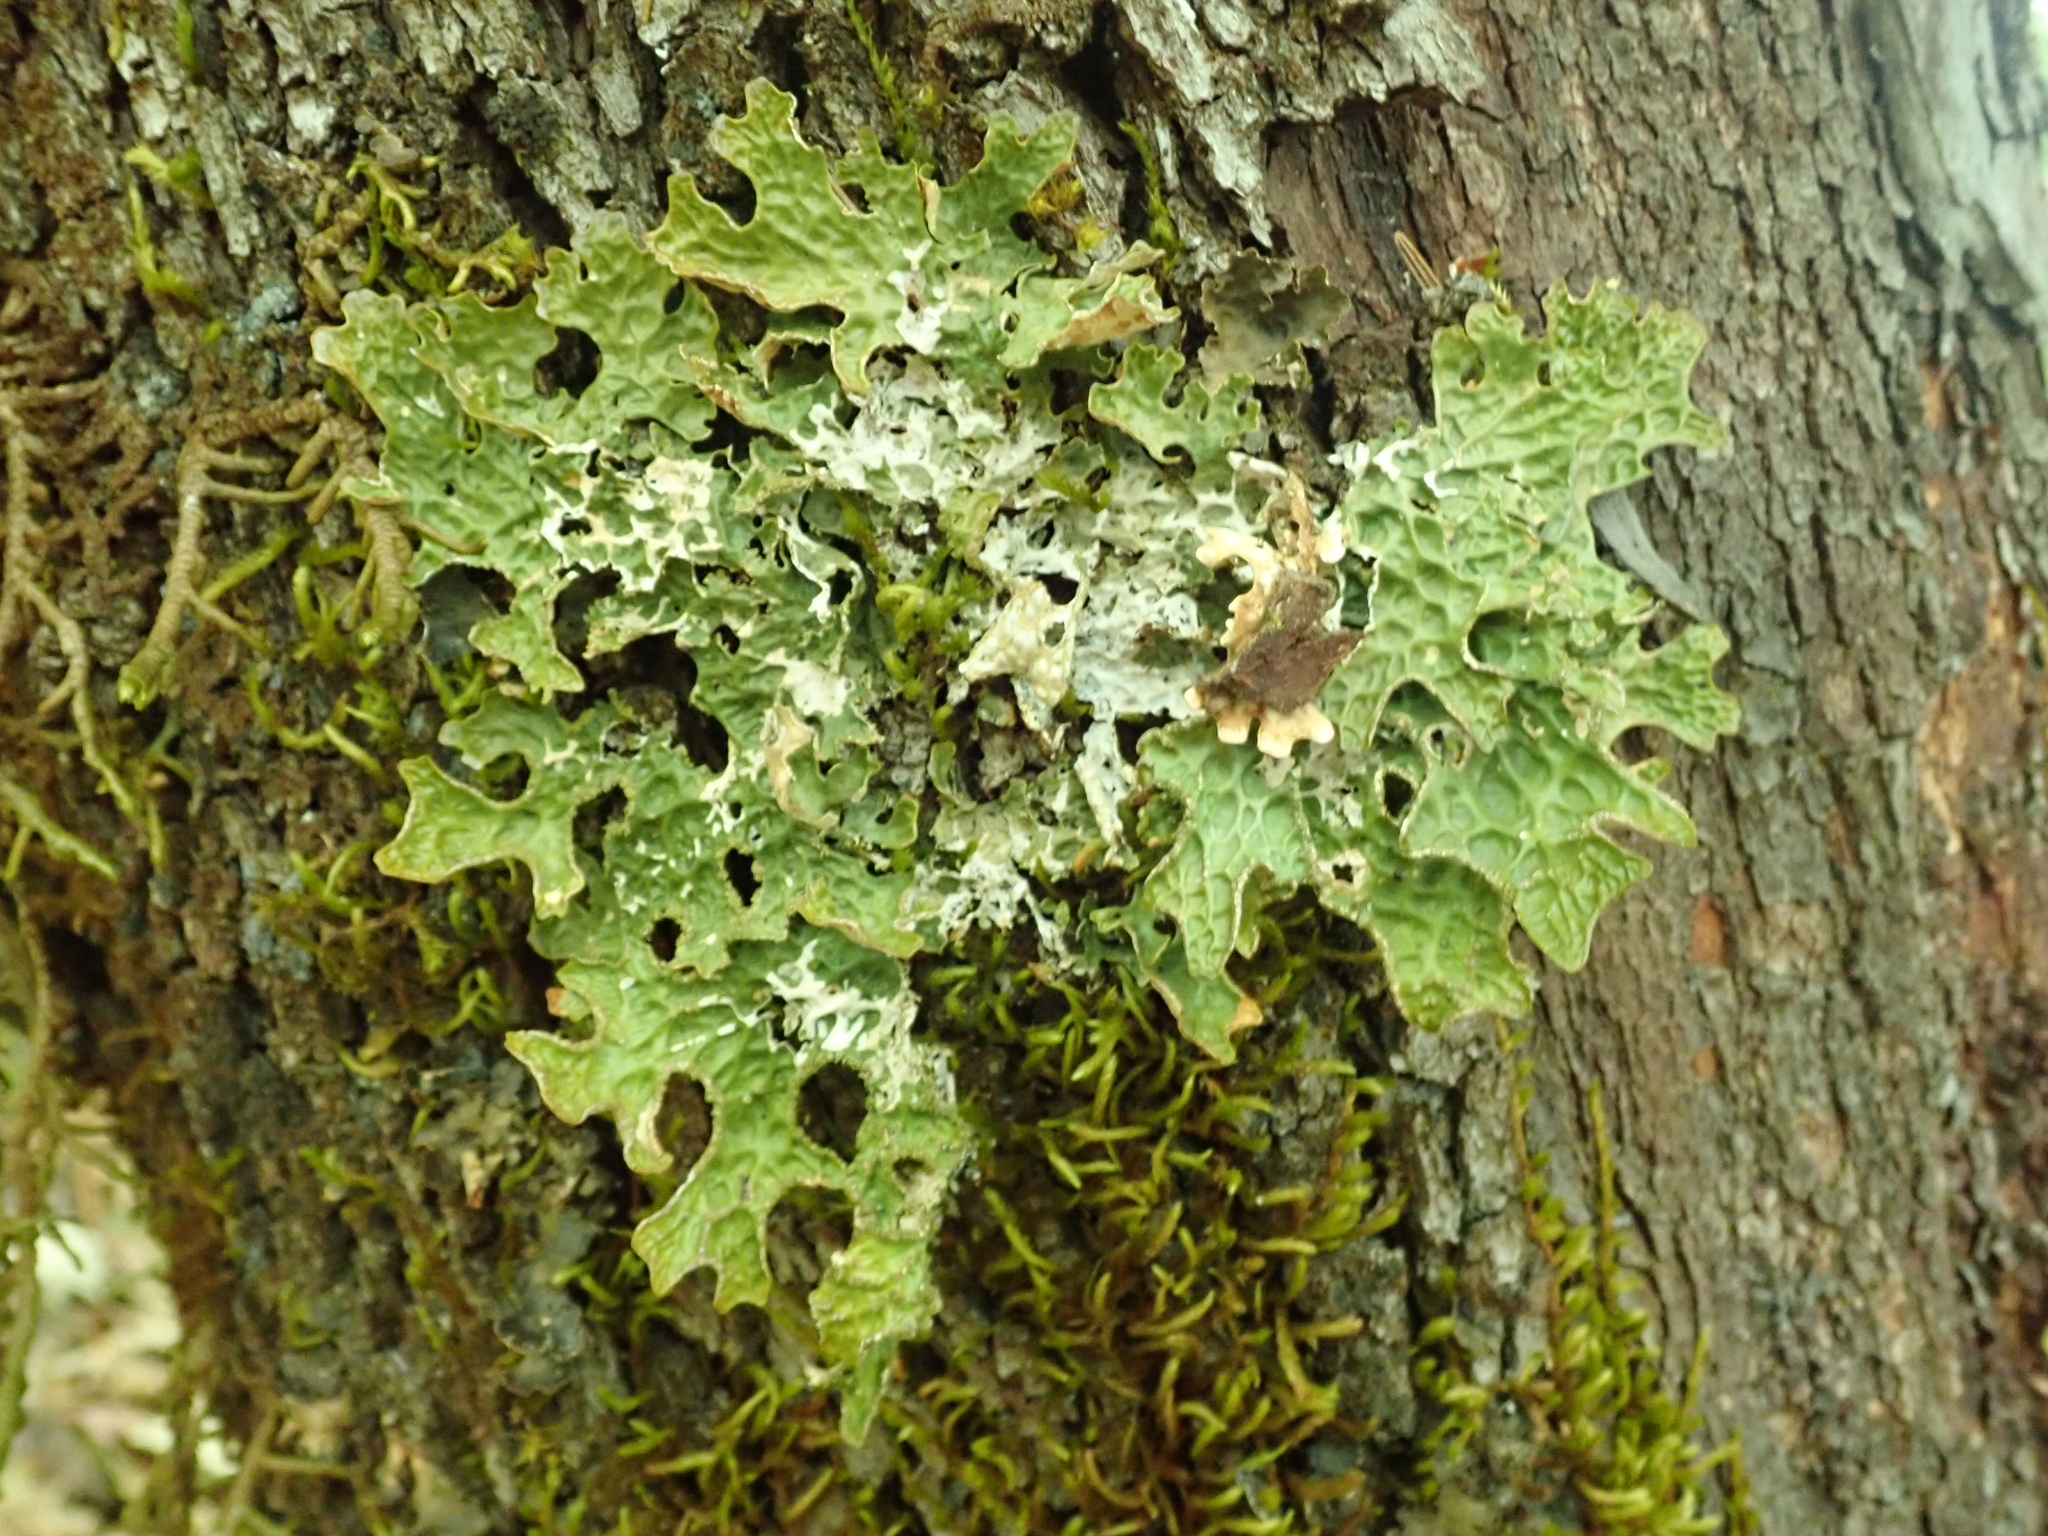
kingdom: Fungi
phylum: Ascomycota
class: Lecanoromycetes
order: Peltigerales
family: Lobariaceae
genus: Lobaria
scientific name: Lobaria pulmonaria
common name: Lungwort
